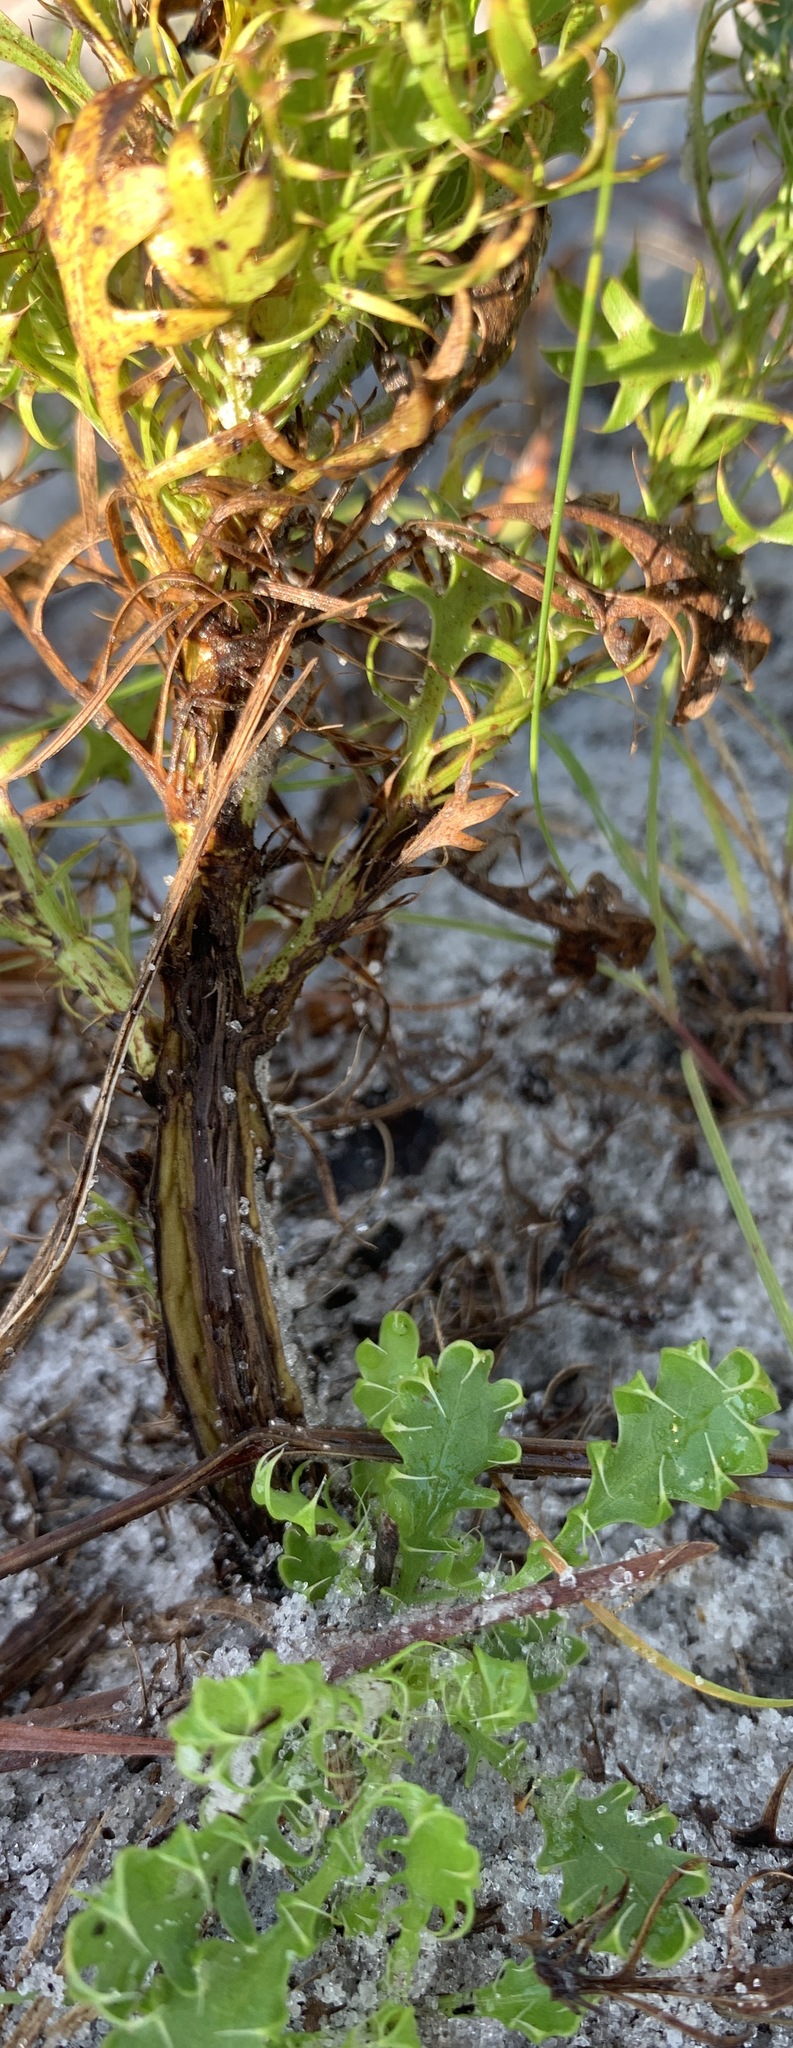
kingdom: Plantae
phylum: Tracheophyta
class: Magnoliopsida
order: Apiales
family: Apiaceae
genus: Eryngium
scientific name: Eryngium aromaticum
